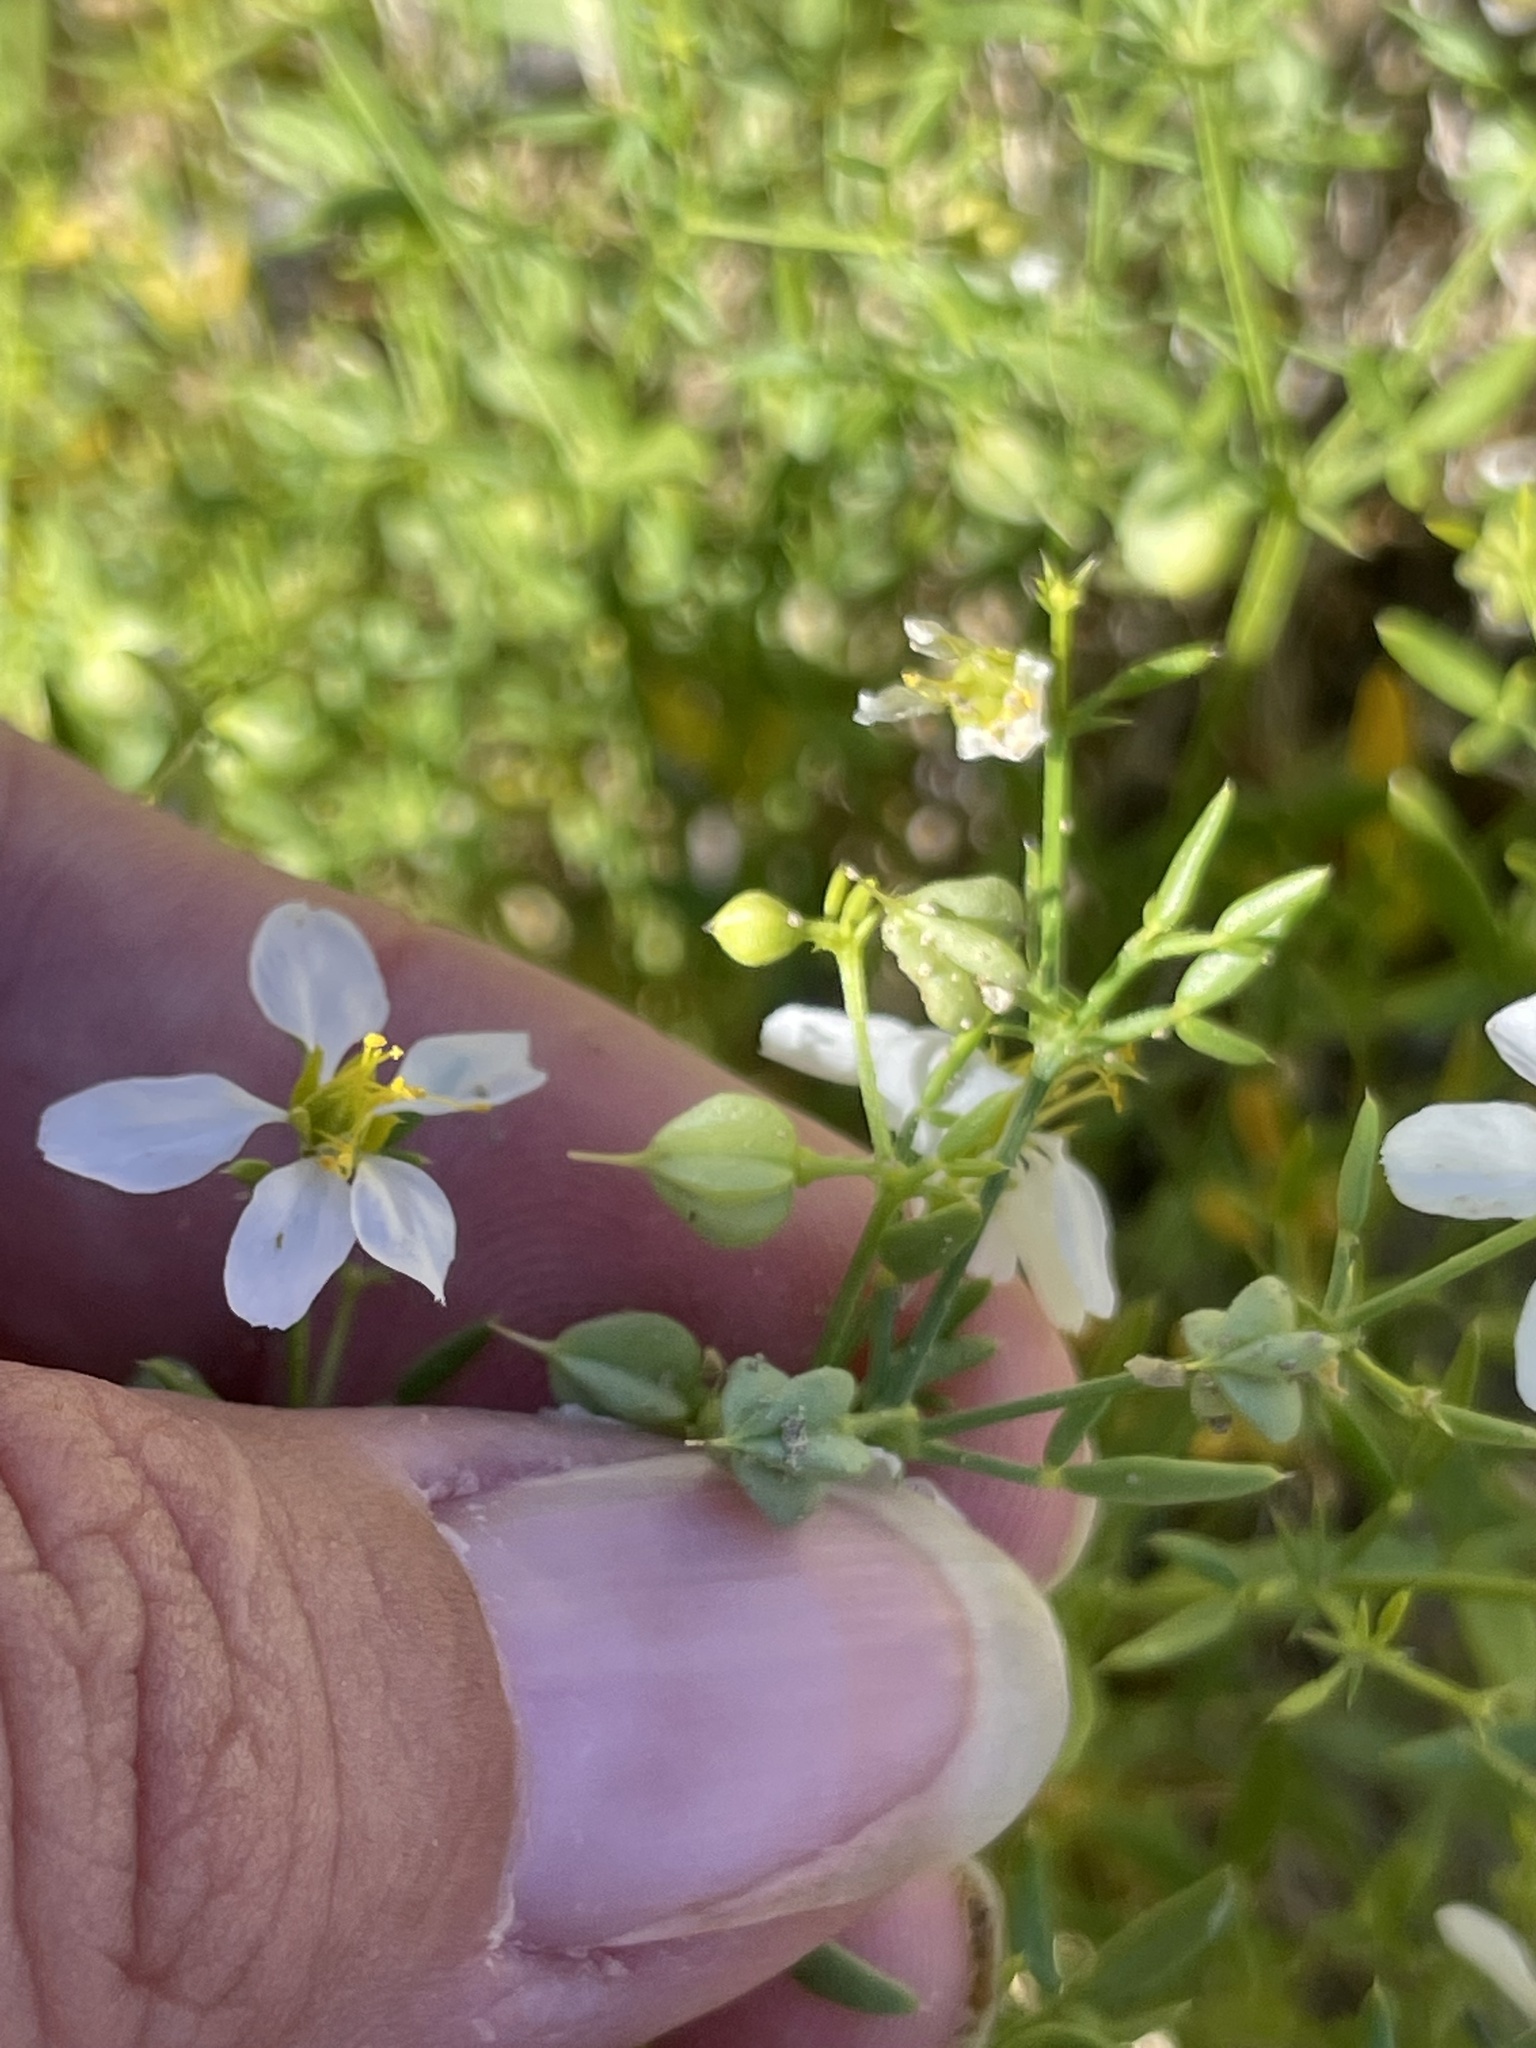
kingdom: Plantae
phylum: Tracheophyta
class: Magnoliopsida
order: Zygophyllales
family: Zygophyllaceae
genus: Fagonia
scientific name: Fagonia laevis
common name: California fagonbush
